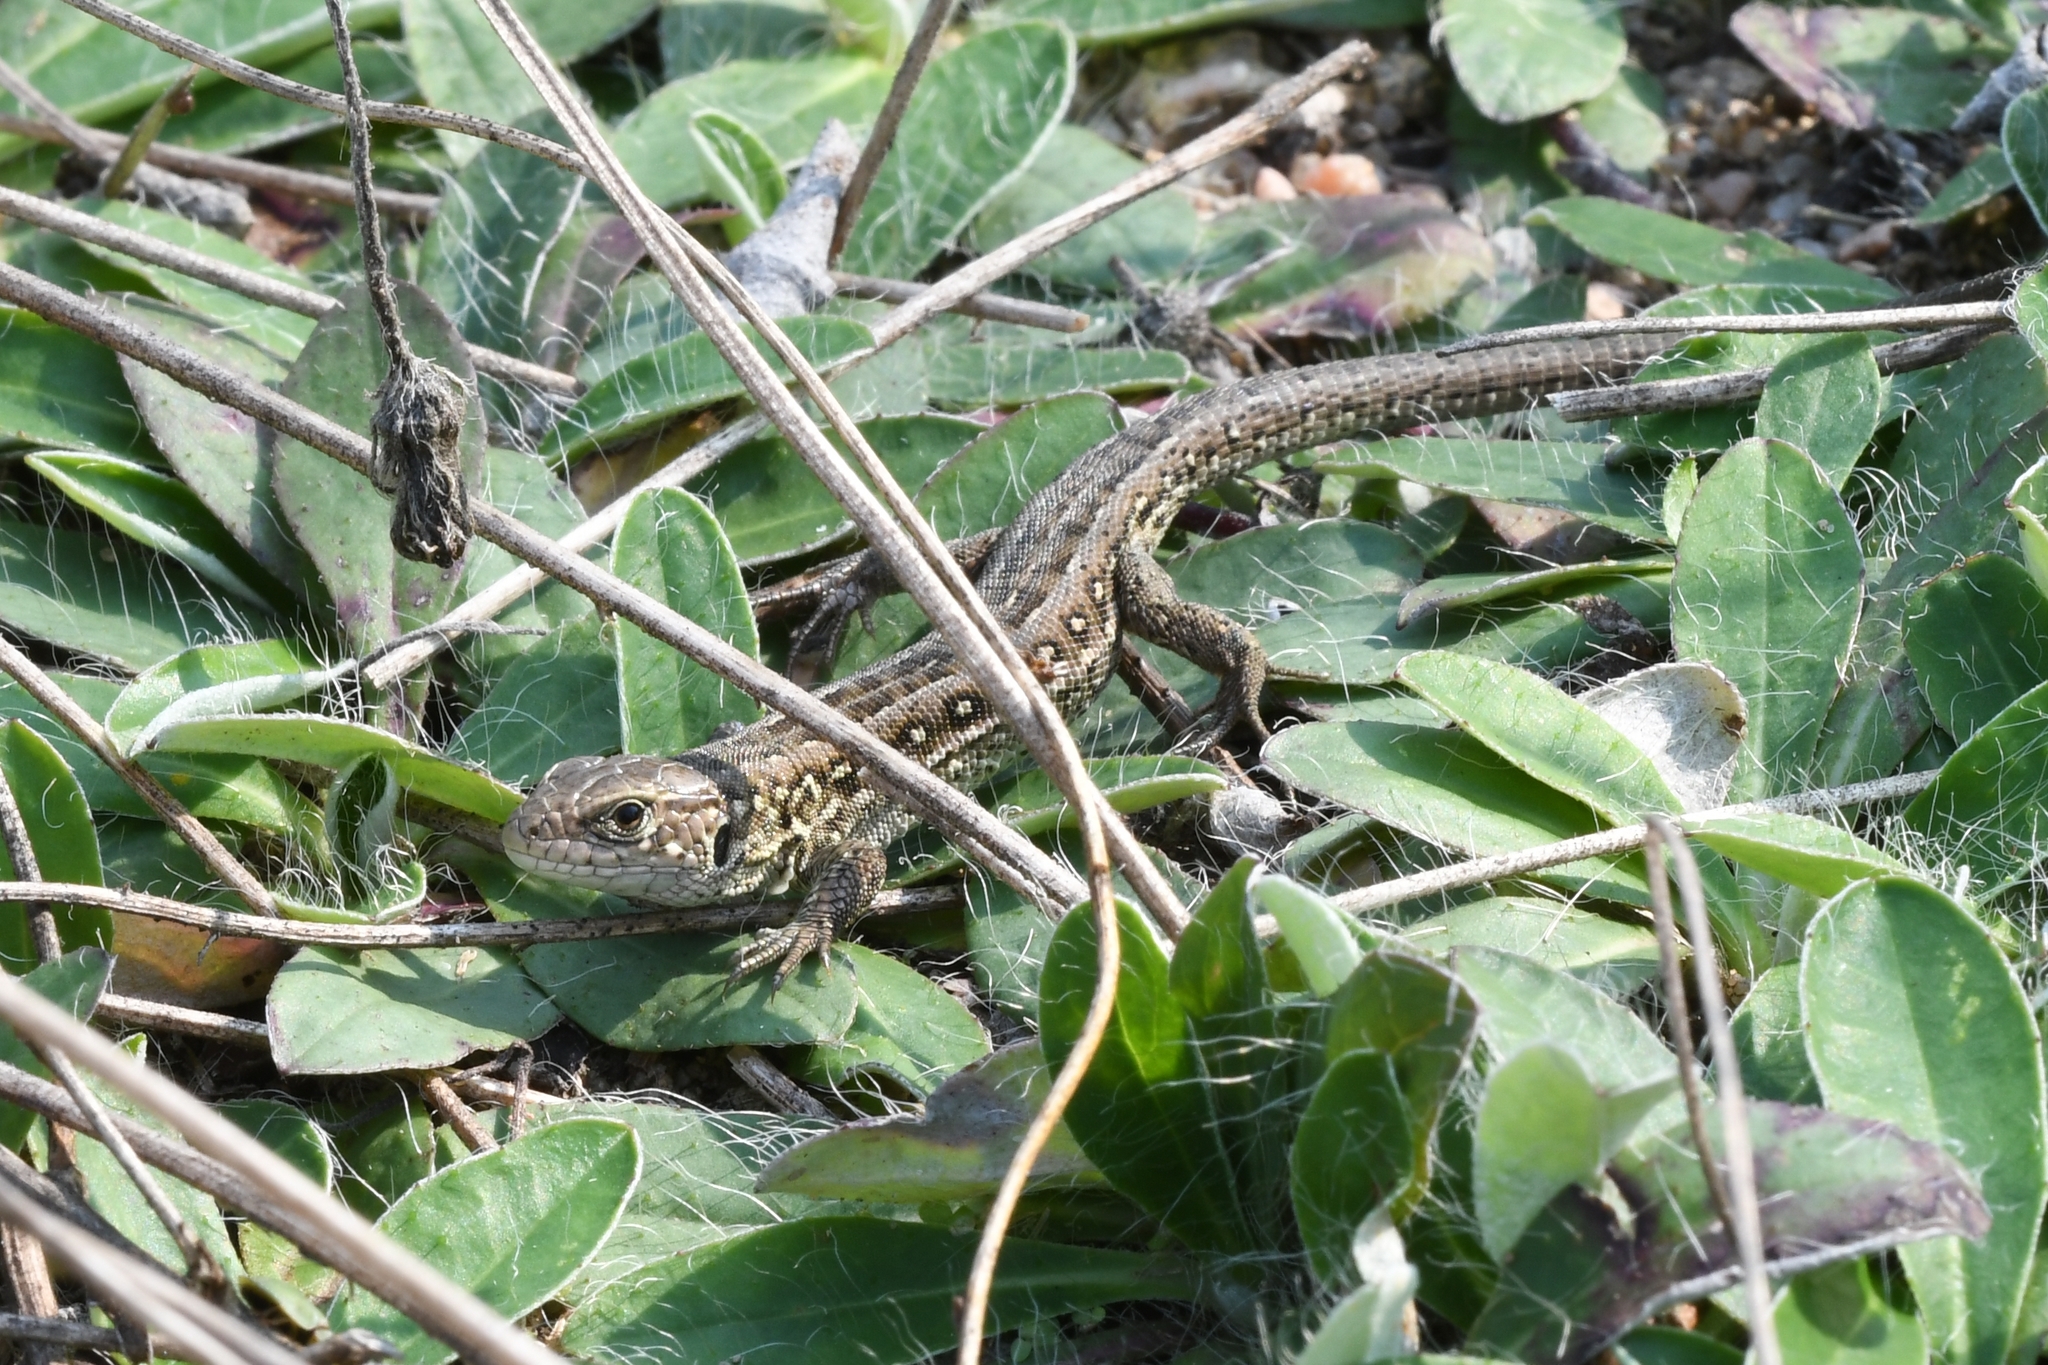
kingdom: Animalia
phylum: Chordata
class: Squamata
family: Lacertidae
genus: Lacerta
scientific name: Lacerta agilis
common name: Sand lizard
